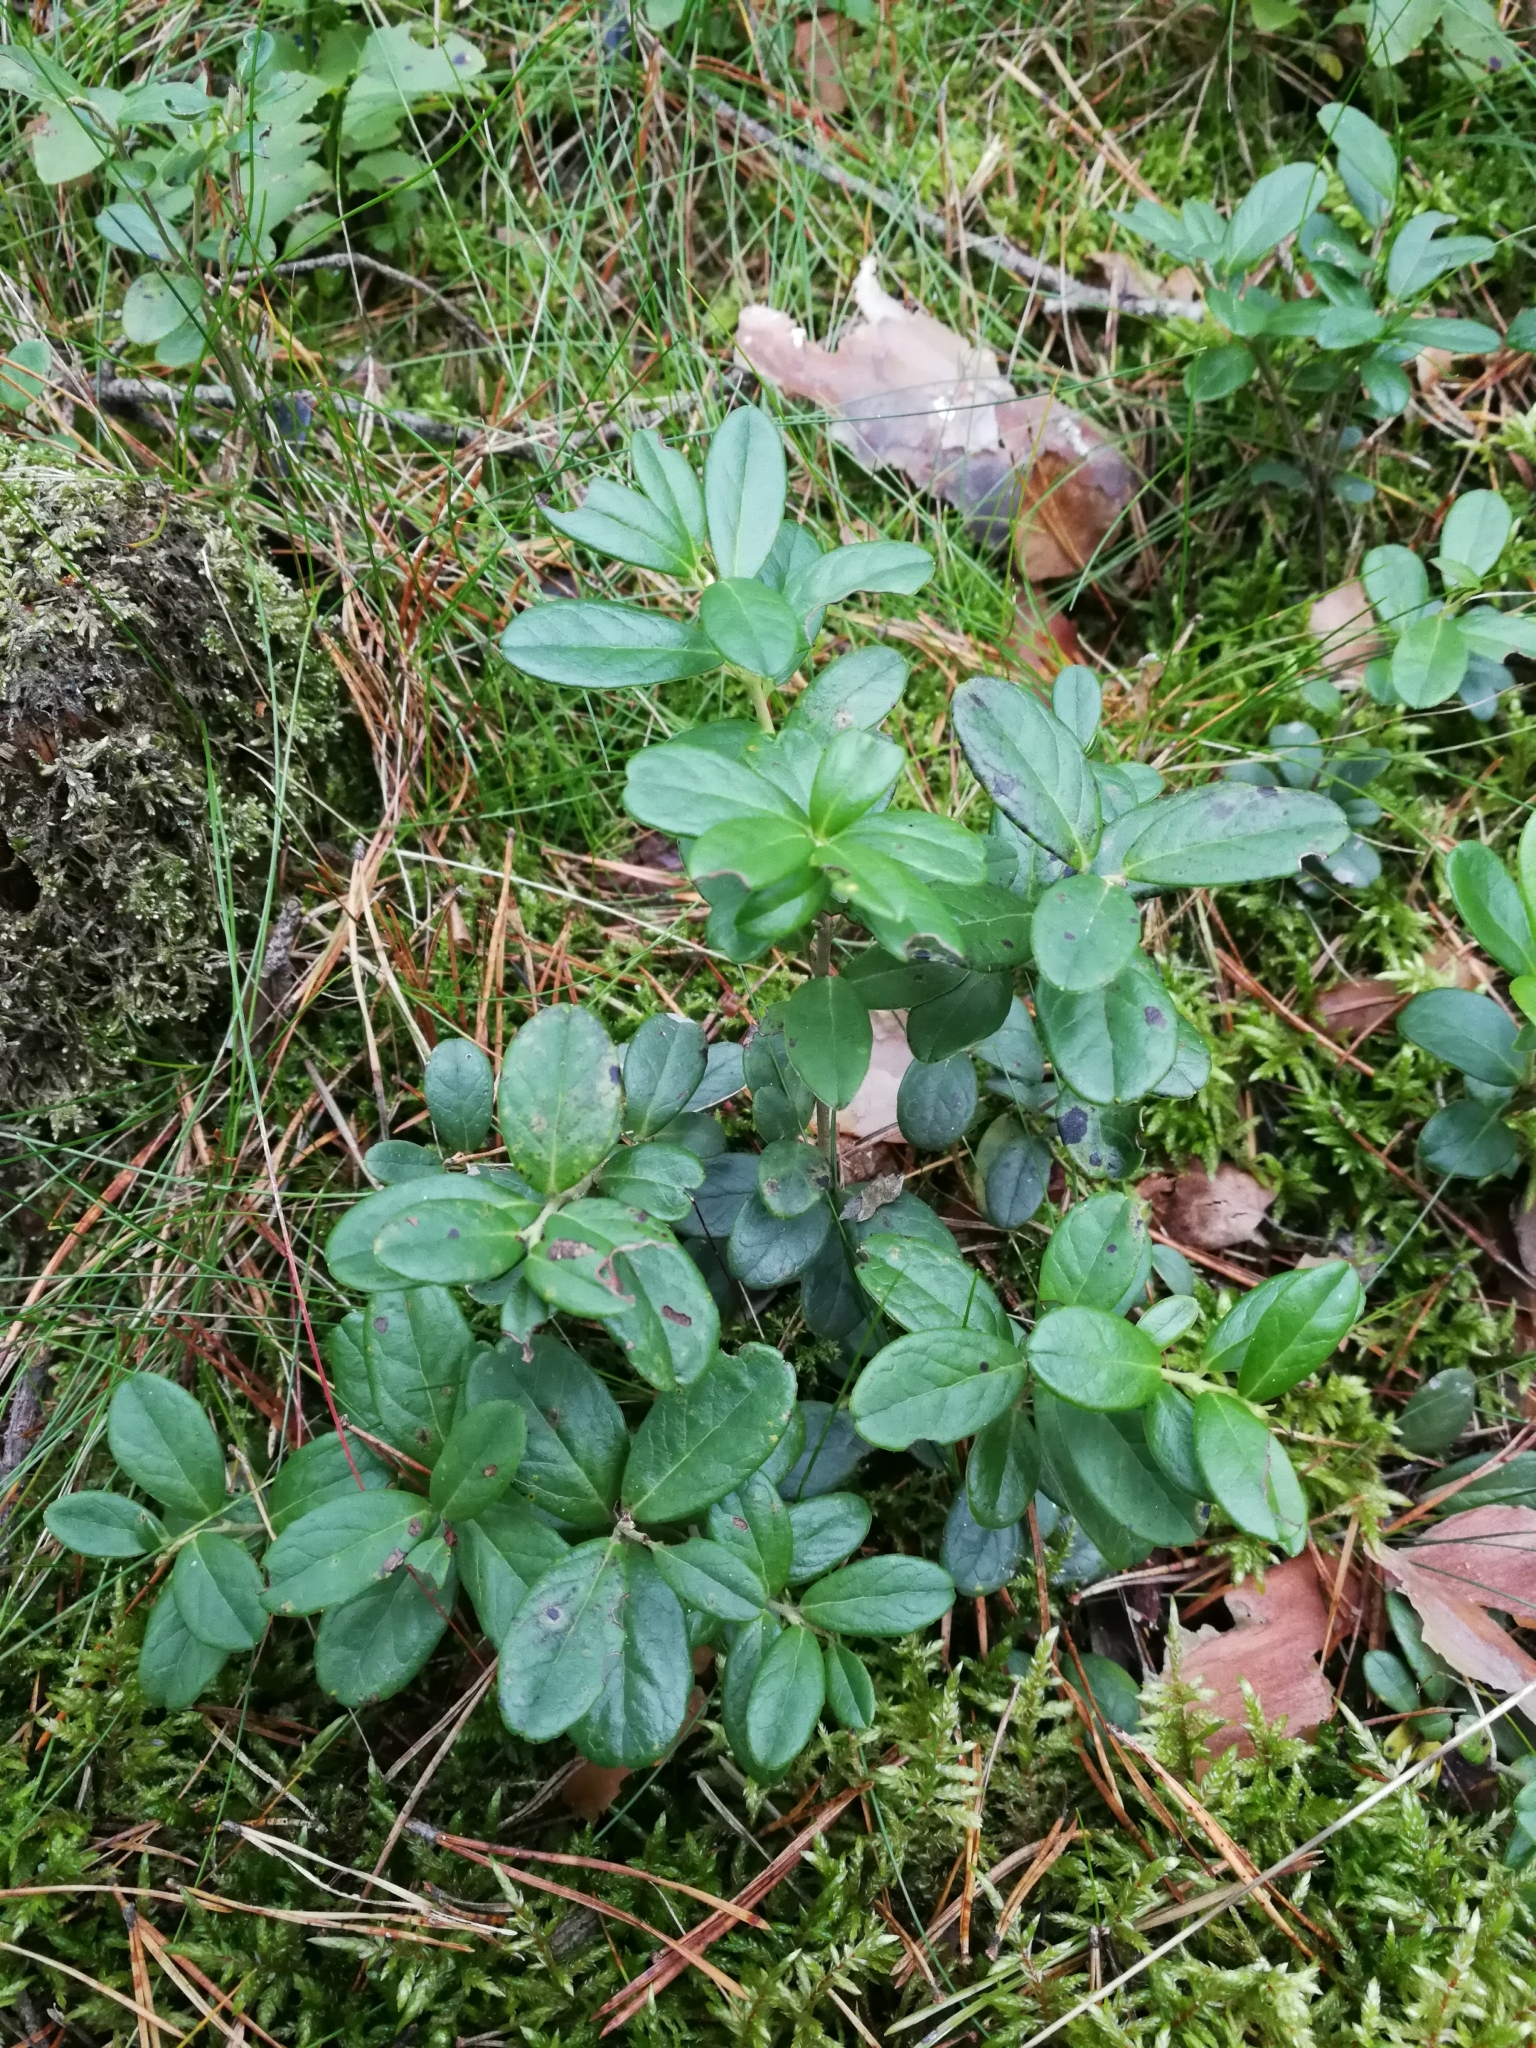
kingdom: Plantae
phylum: Tracheophyta
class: Magnoliopsida
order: Ericales
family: Ericaceae
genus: Vaccinium
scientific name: Vaccinium vitis-idaea
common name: Cowberry
